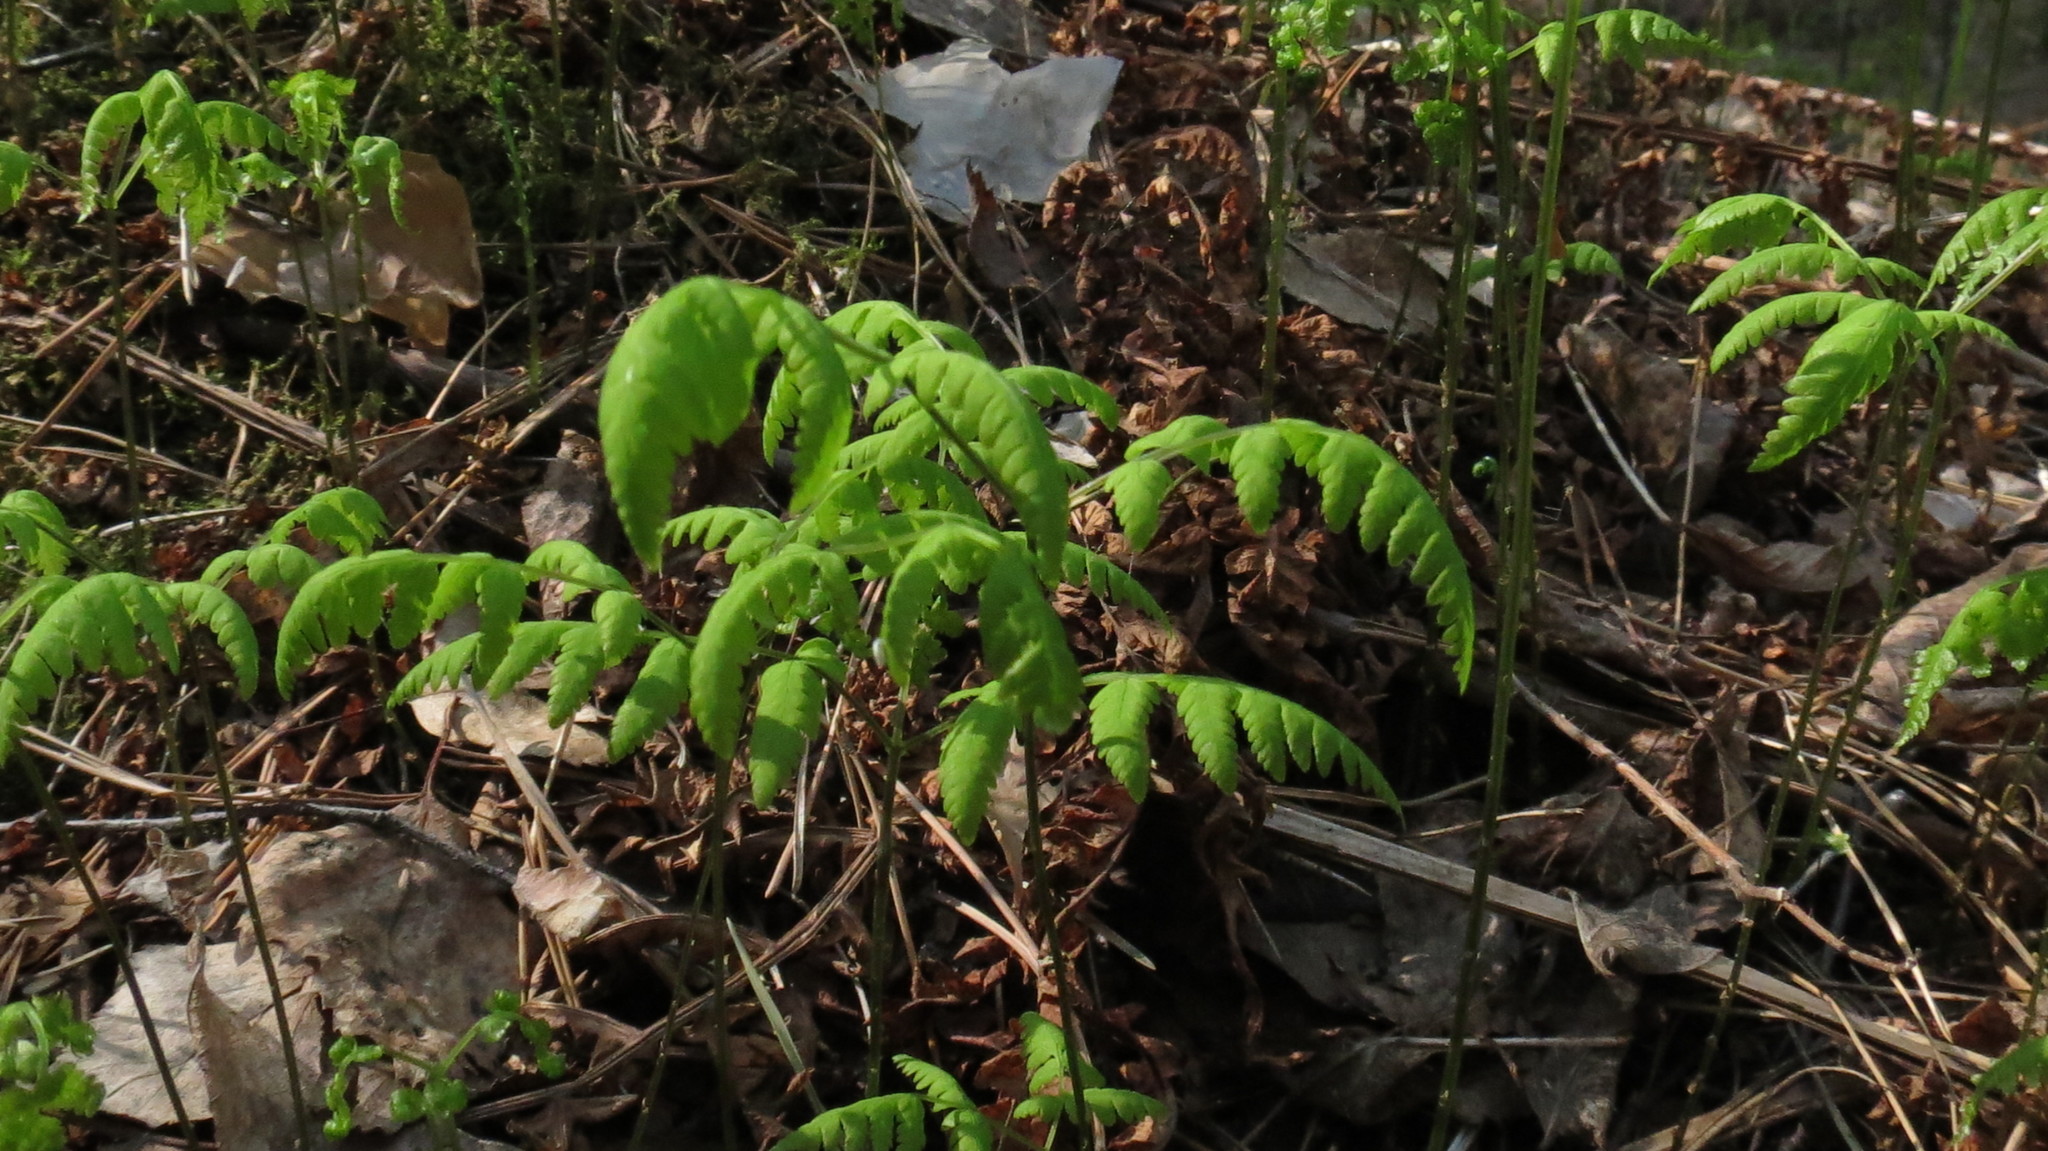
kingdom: Plantae
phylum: Tracheophyta
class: Polypodiopsida
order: Polypodiales
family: Cystopteridaceae
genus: Gymnocarpium
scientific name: Gymnocarpium dryopteris
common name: Oak fern
